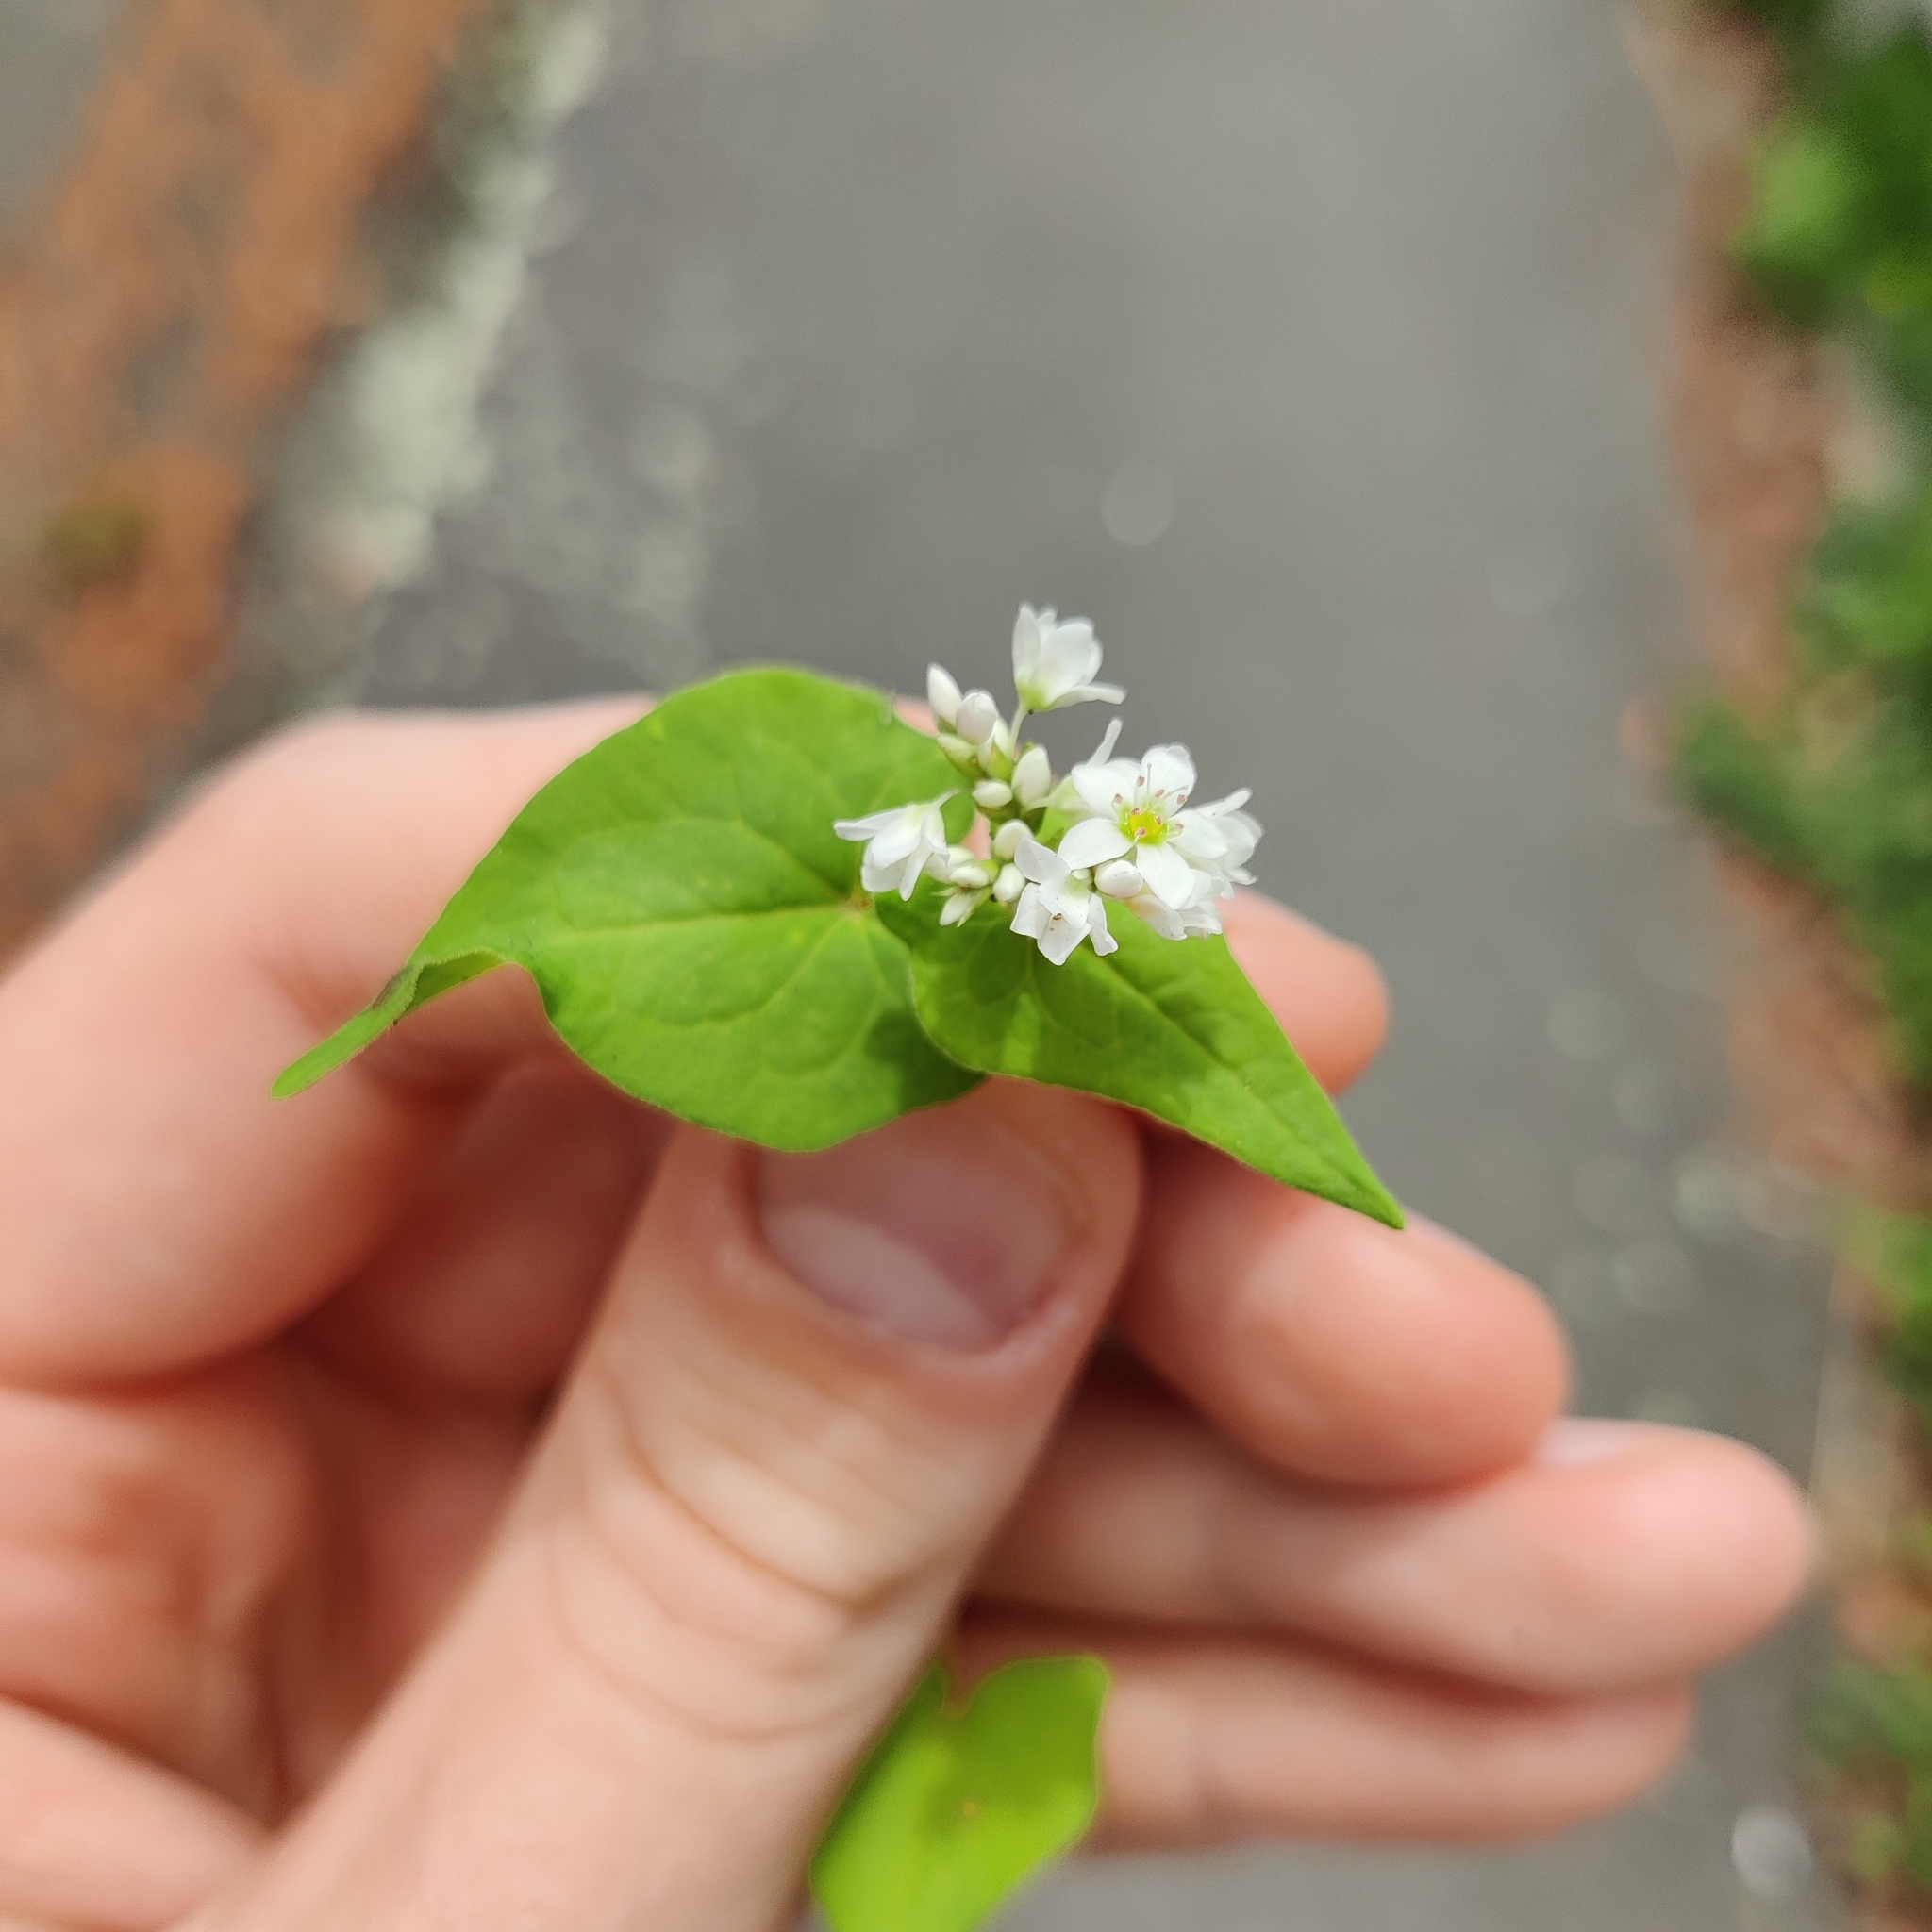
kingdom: Plantae
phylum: Tracheophyta
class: Magnoliopsida
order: Caryophyllales
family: Polygonaceae
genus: Fagopyrum
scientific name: Fagopyrum esculentum
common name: Buckwheat
